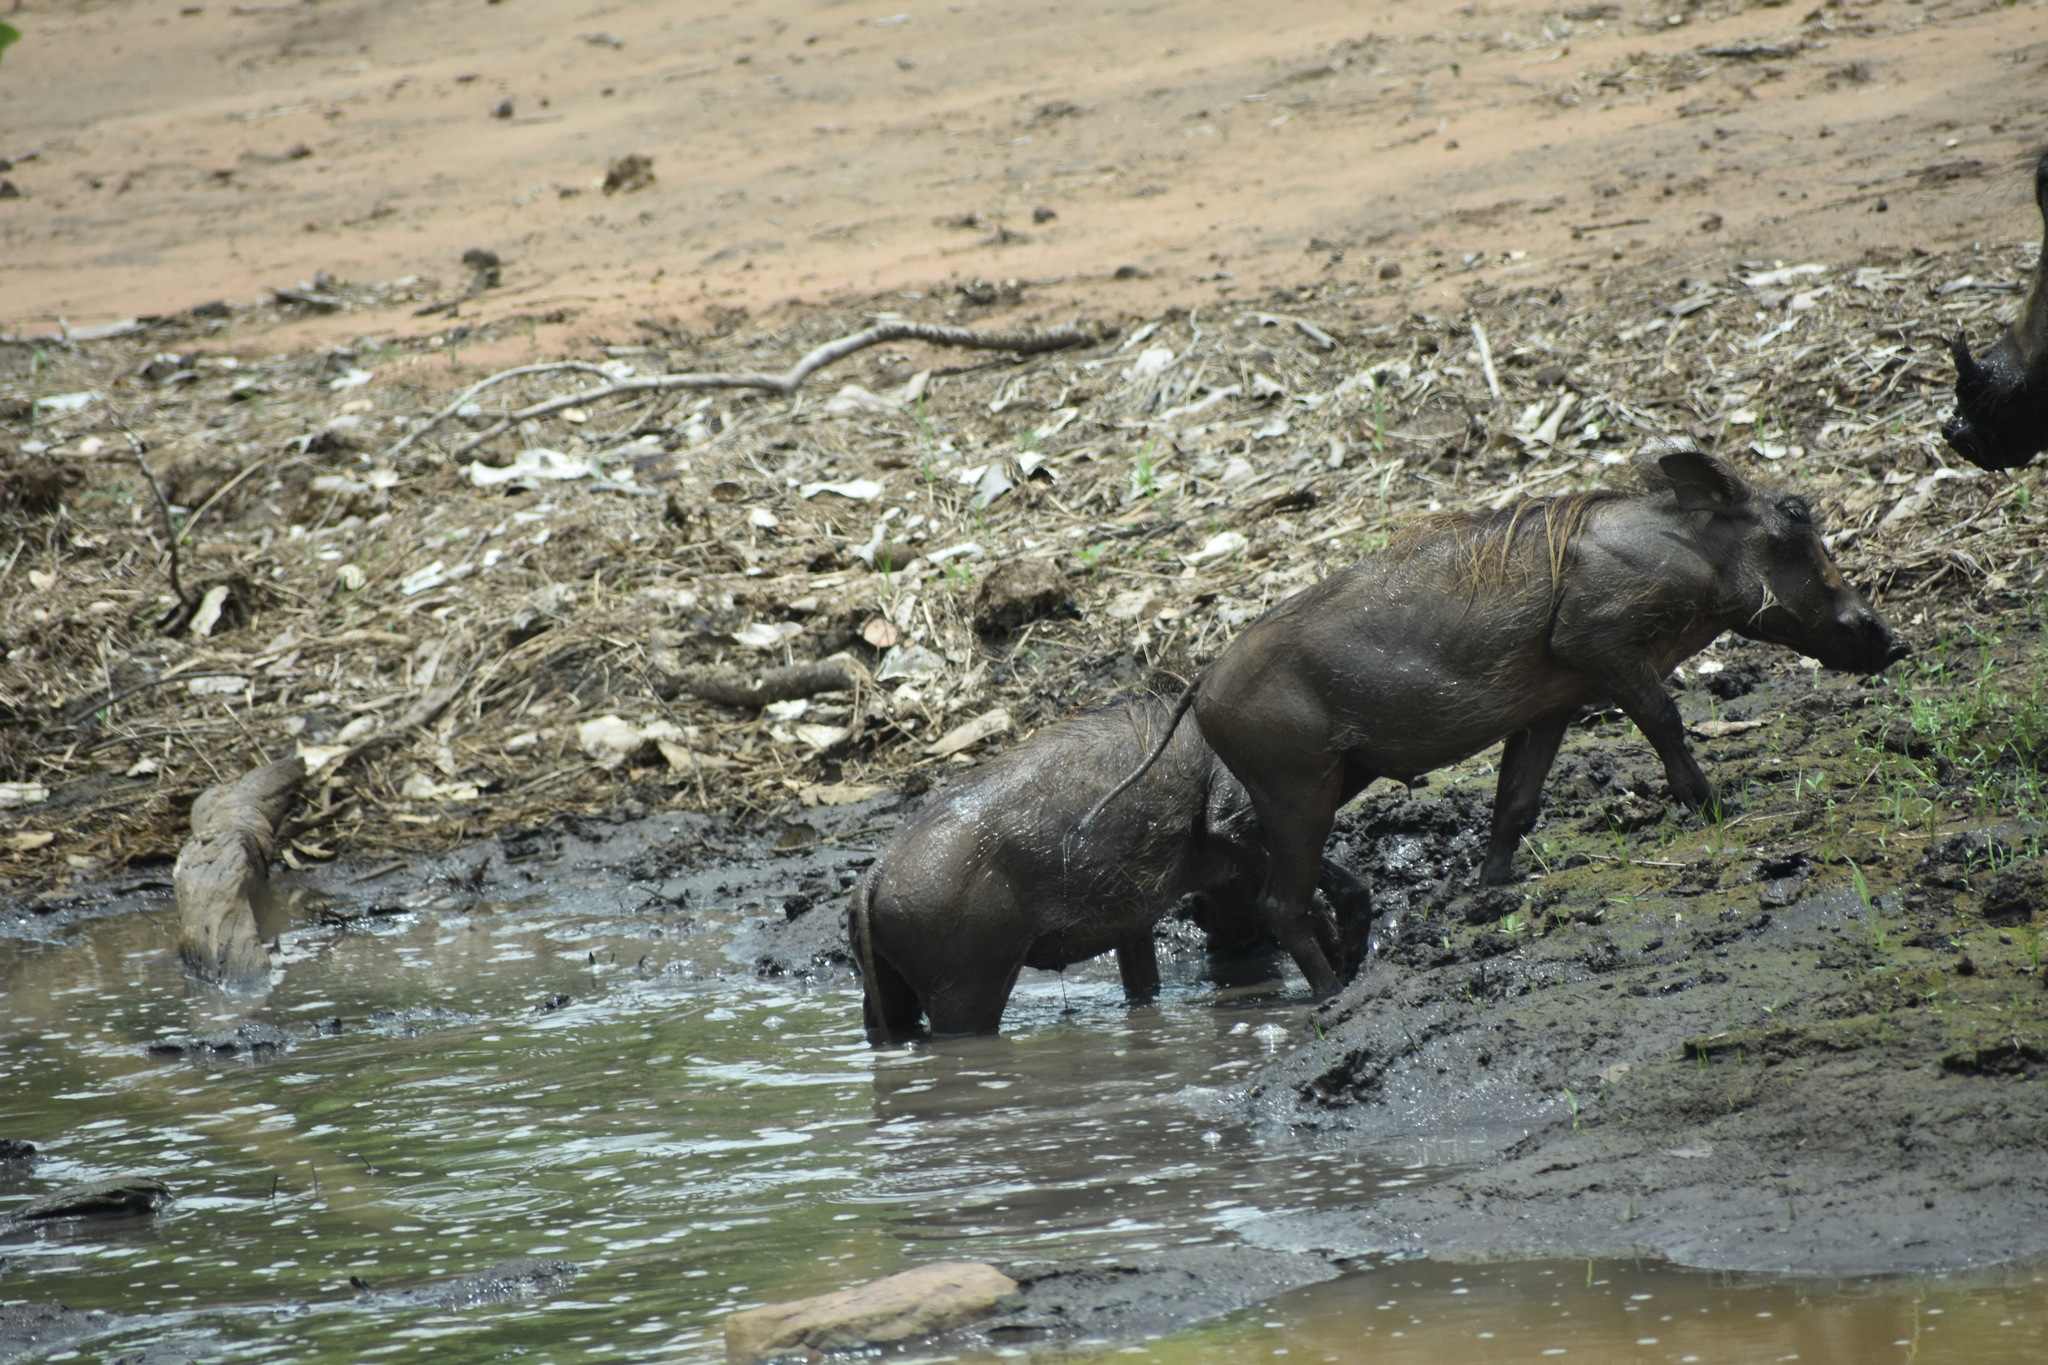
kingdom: Animalia
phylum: Chordata
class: Mammalia
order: Artiodactyla
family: Suidae
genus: Phacochoerus
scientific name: Phacochoerus africanus
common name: Common warthog
